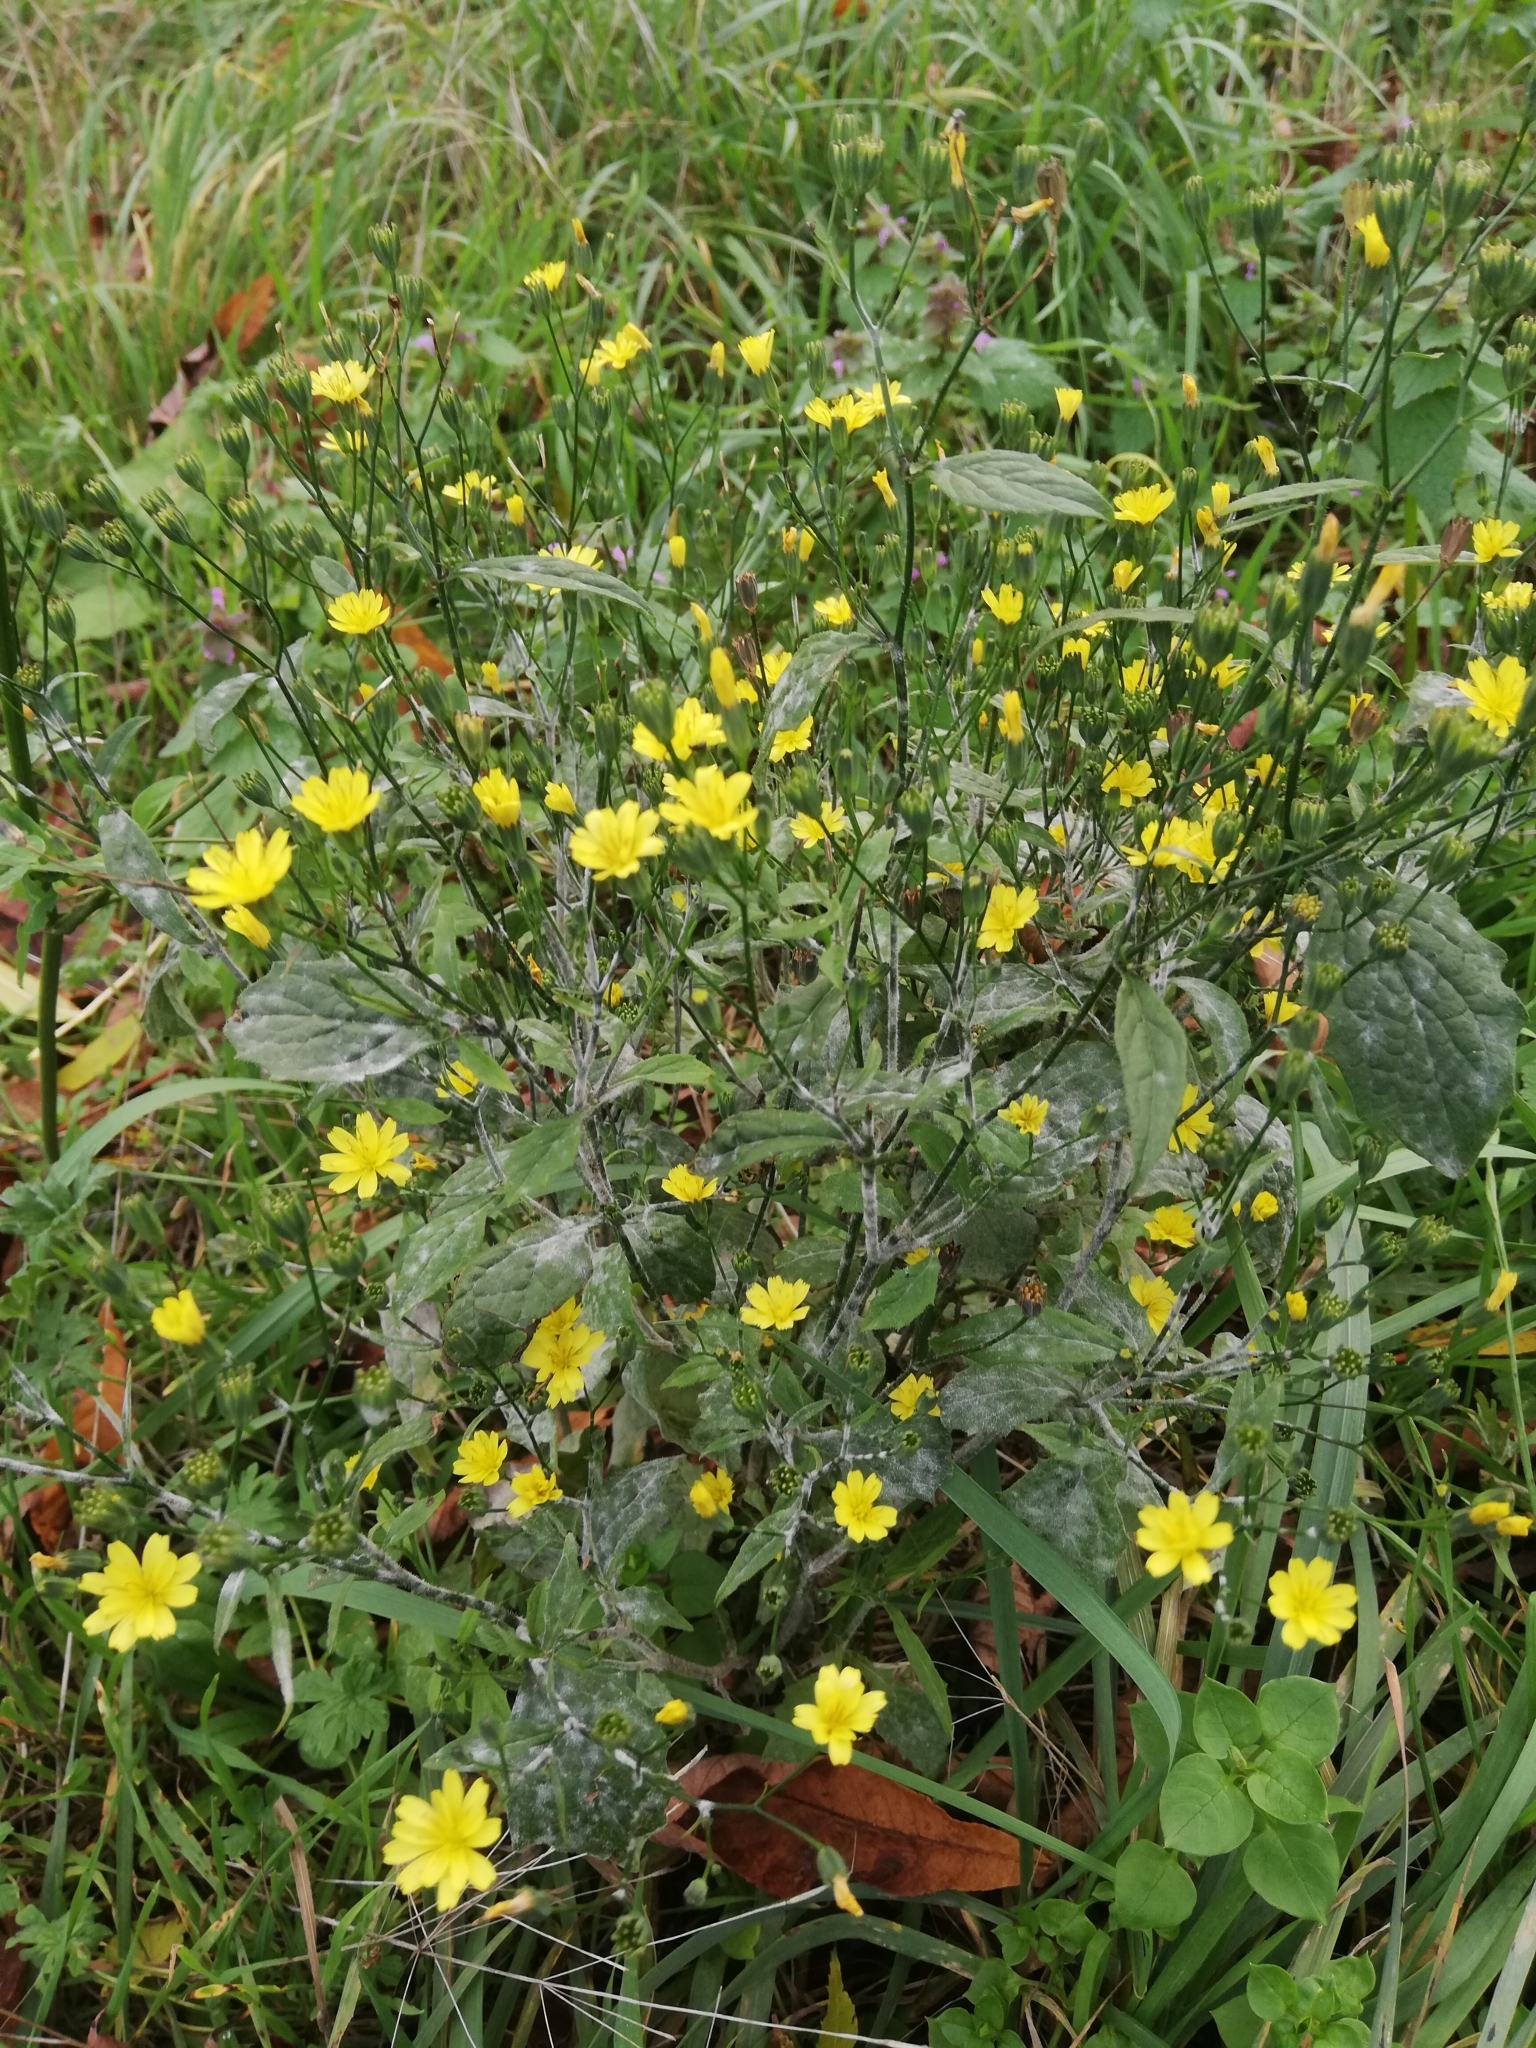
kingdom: Plantae
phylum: Tracheophyta
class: Magnoliopsida
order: Asterales
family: Asteraceae
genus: Lapsana
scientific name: Lapsana communis
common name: Nipplewort
